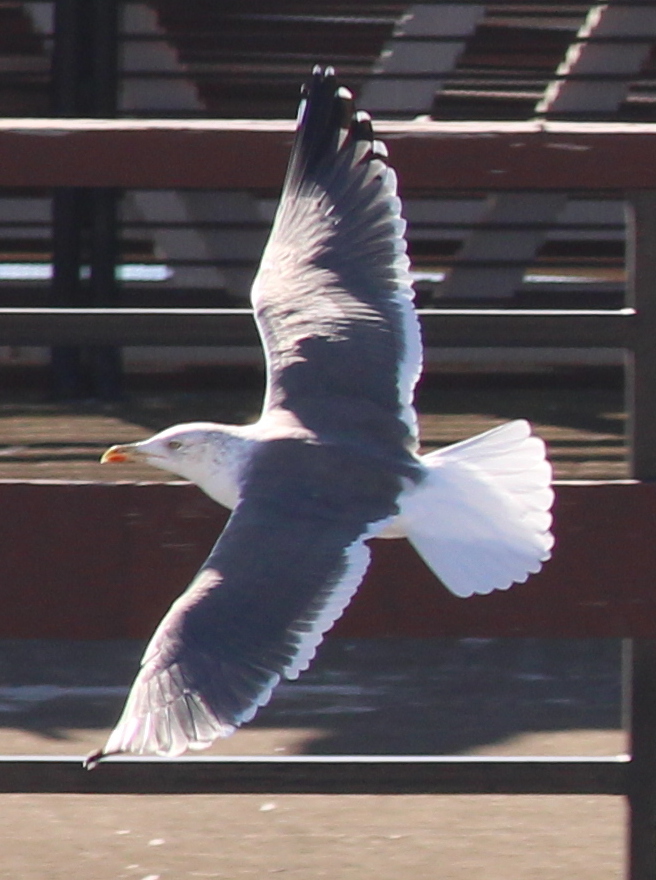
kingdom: Animalia
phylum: Chordata
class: Aves
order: Charadriiformes
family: Laridae
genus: Larus
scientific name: Larus fuscus
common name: Lesser black-backed gull
